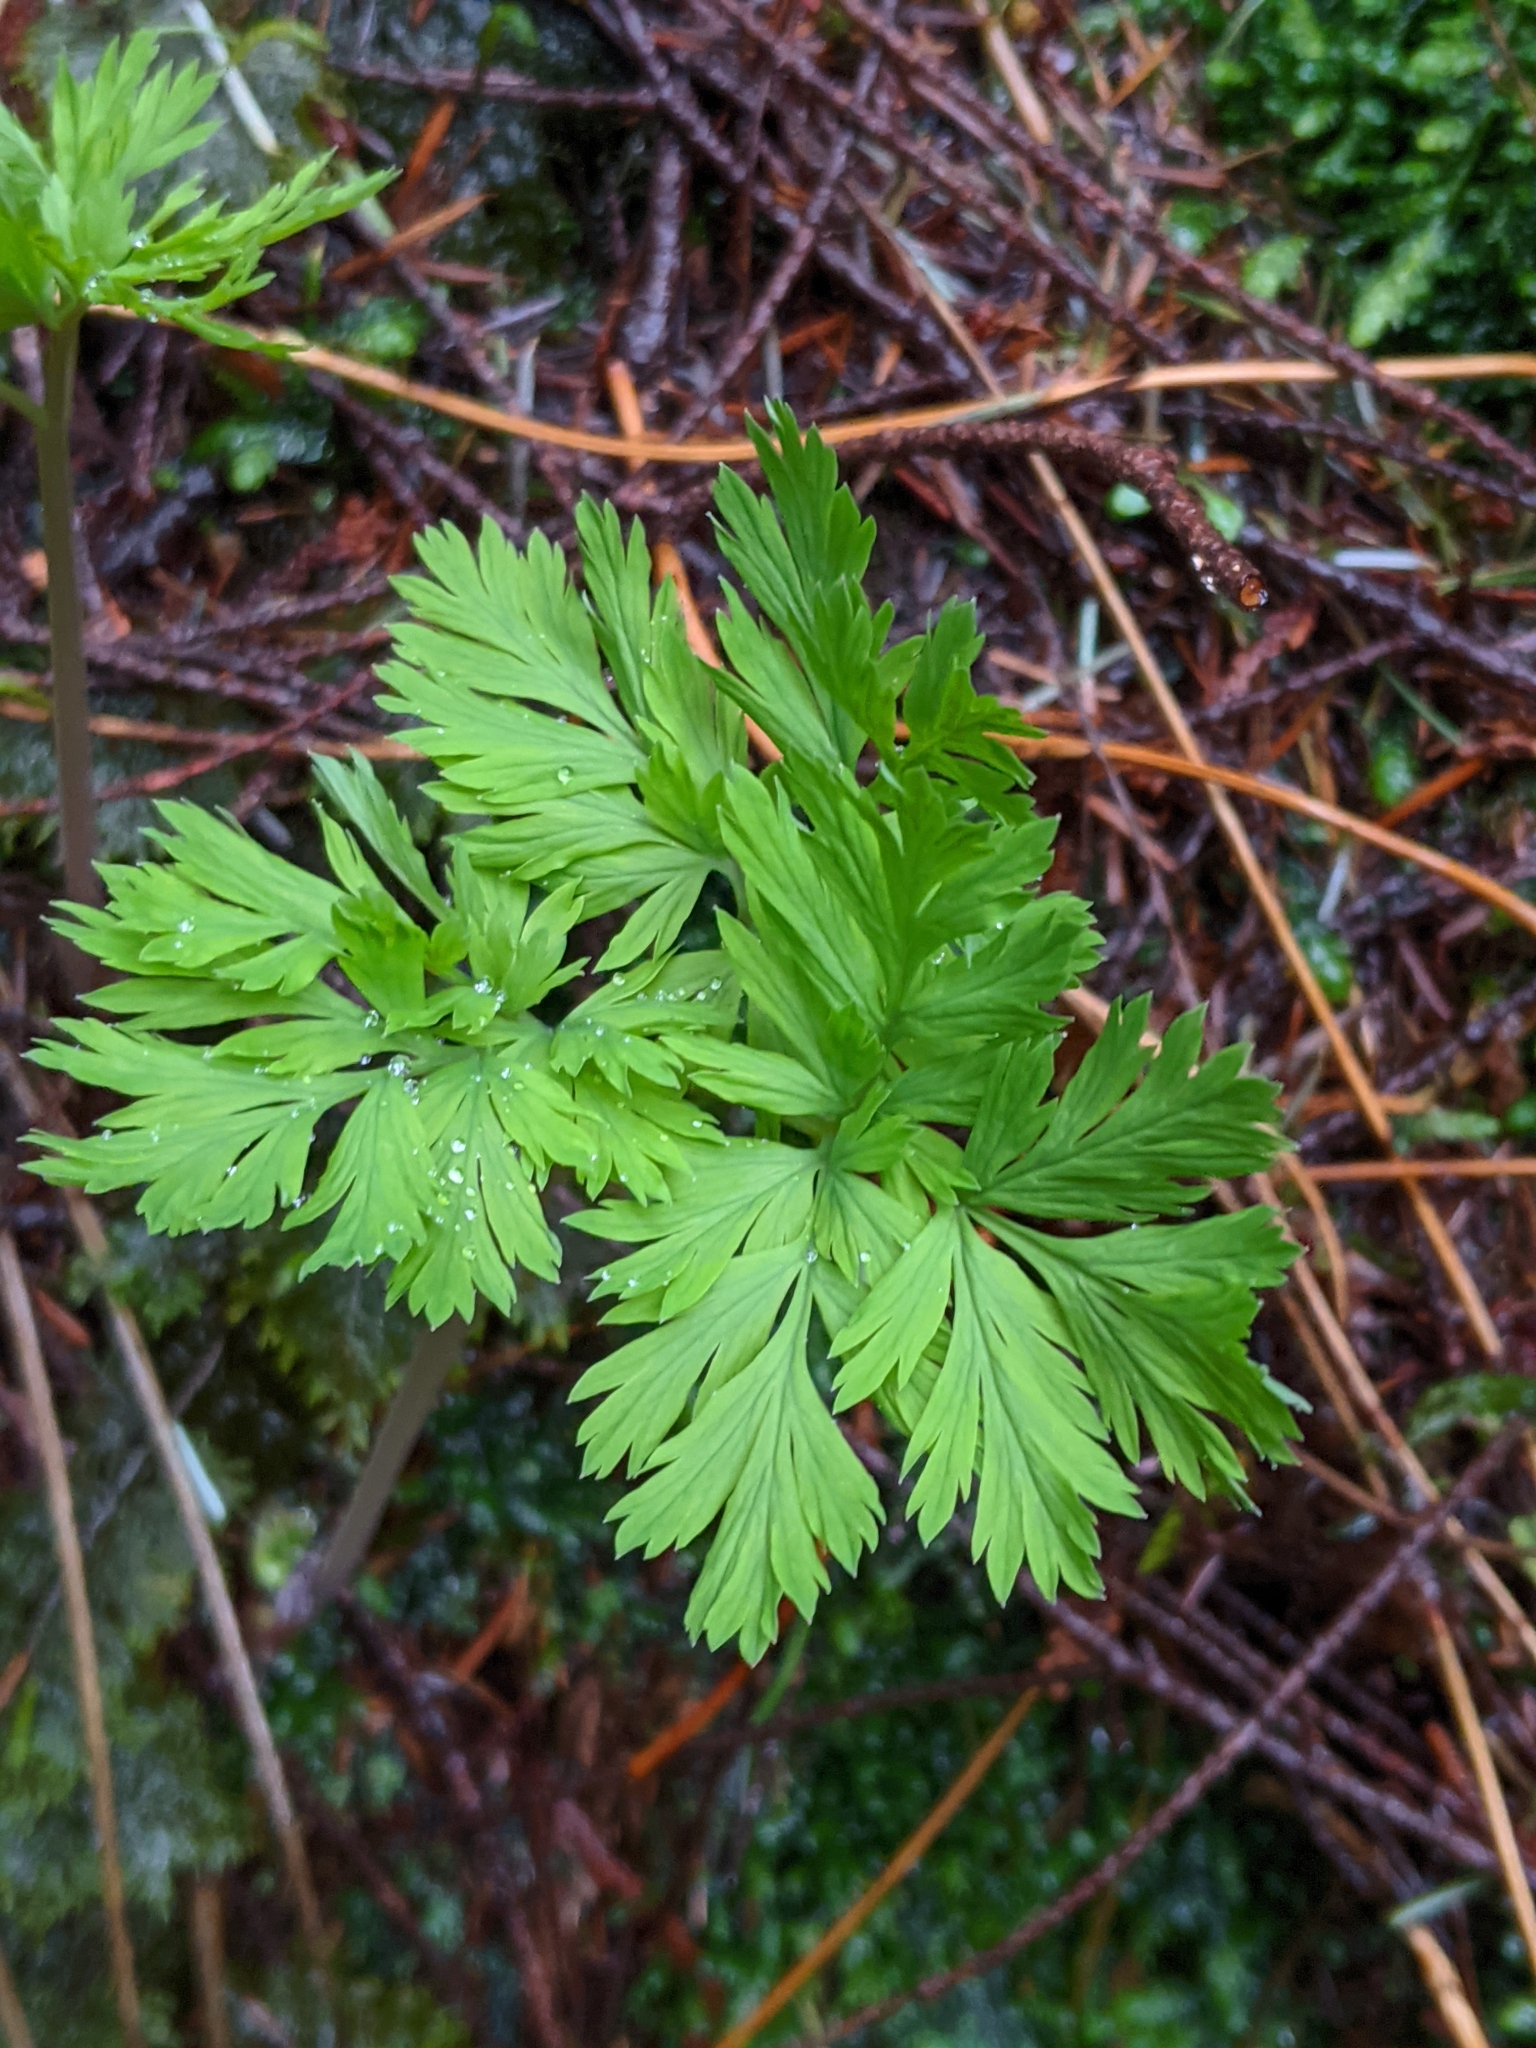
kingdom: Plantae
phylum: Tracheophyta
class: Magnoliopsida
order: Ranunculales
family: Papaveraceae
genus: Dicentra
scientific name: Dicentra formosa
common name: Bleeding-heart
